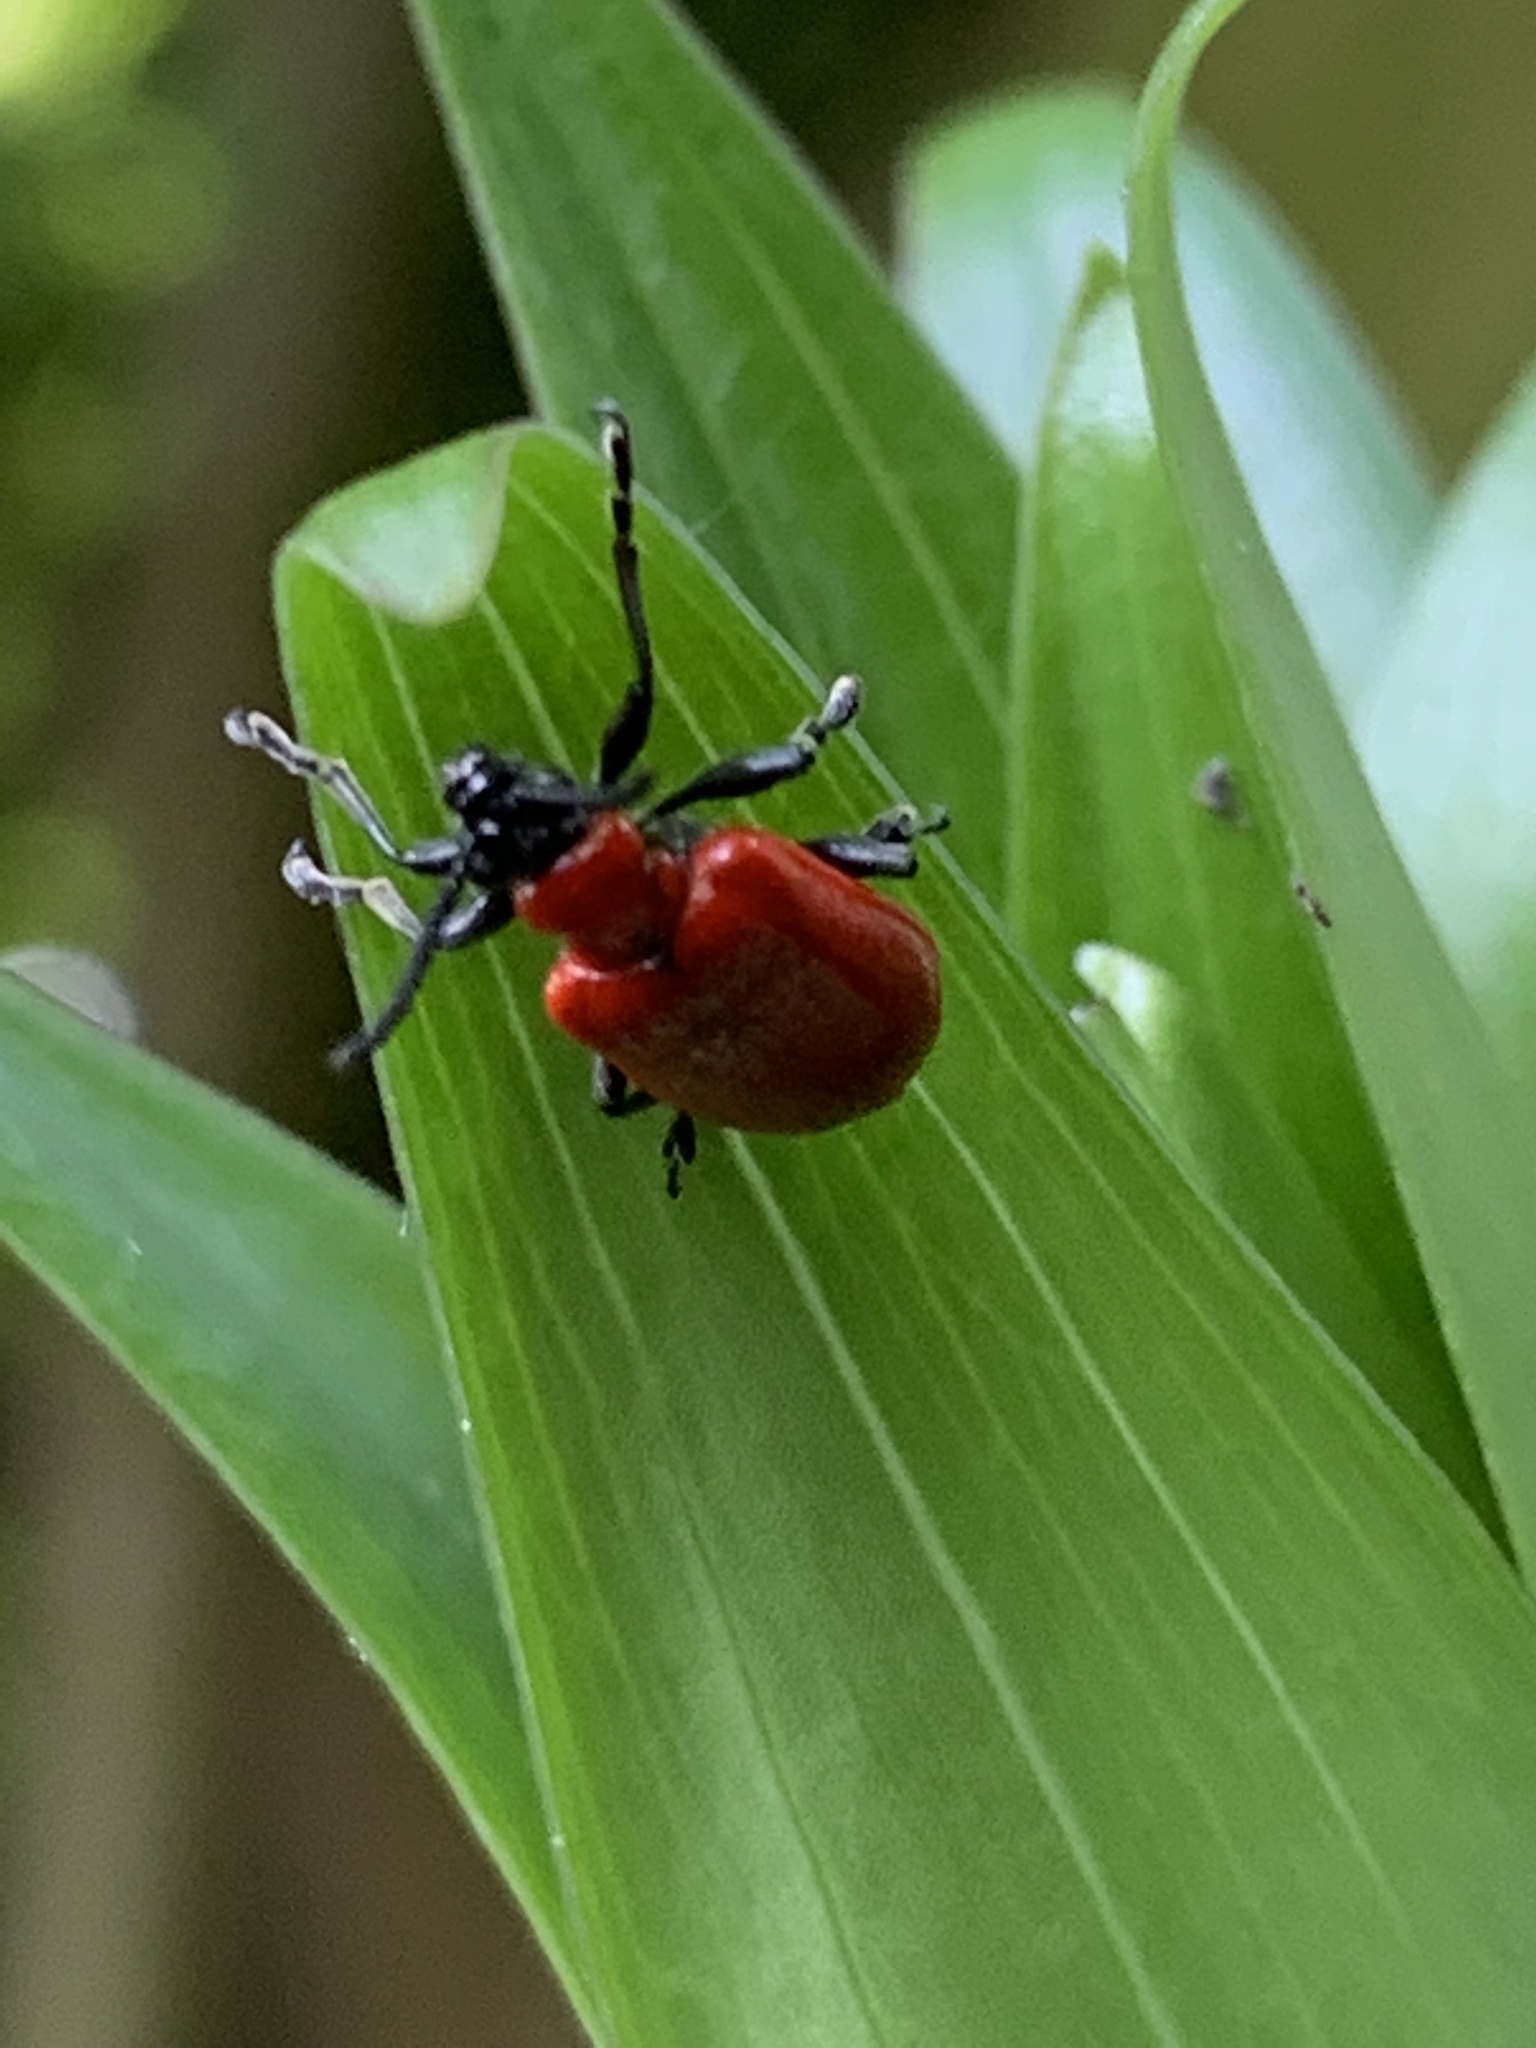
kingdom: Animalia
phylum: Arthropoda
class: Insecta
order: Coleoptera
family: Chrysomelidae
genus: Lilioceris
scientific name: Lilioceris lilii
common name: Lily beetle
